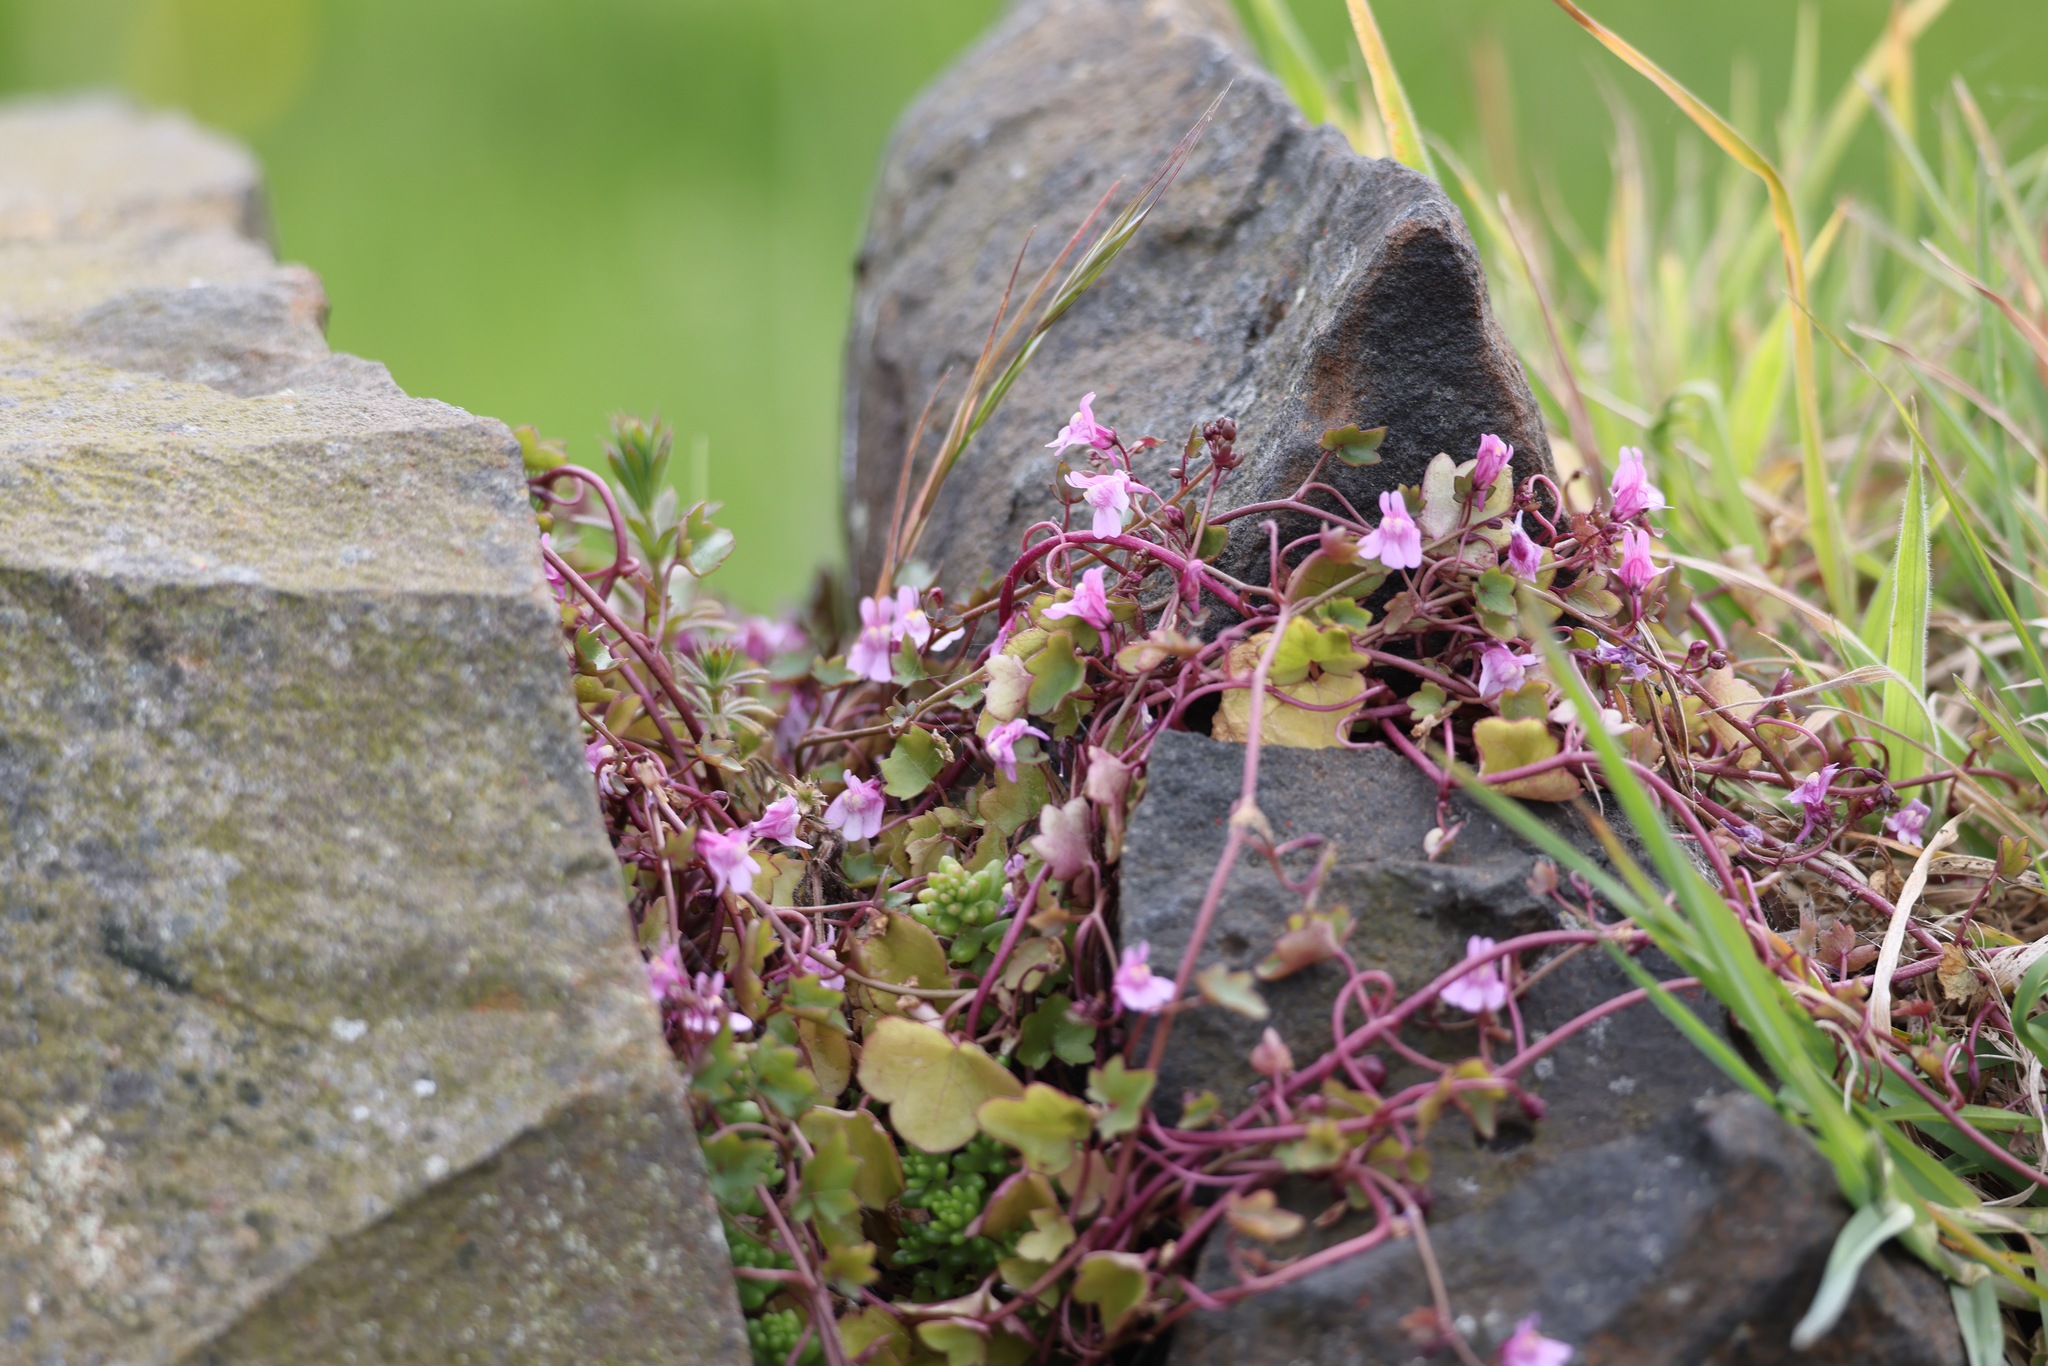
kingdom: Plantae
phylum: Tracheophyta
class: Magnoliopsida
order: Lamiales
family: Plantaginaceae
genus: Cymbalaria
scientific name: Cymbalaria muralis
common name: Ivy-leaved toadflax
